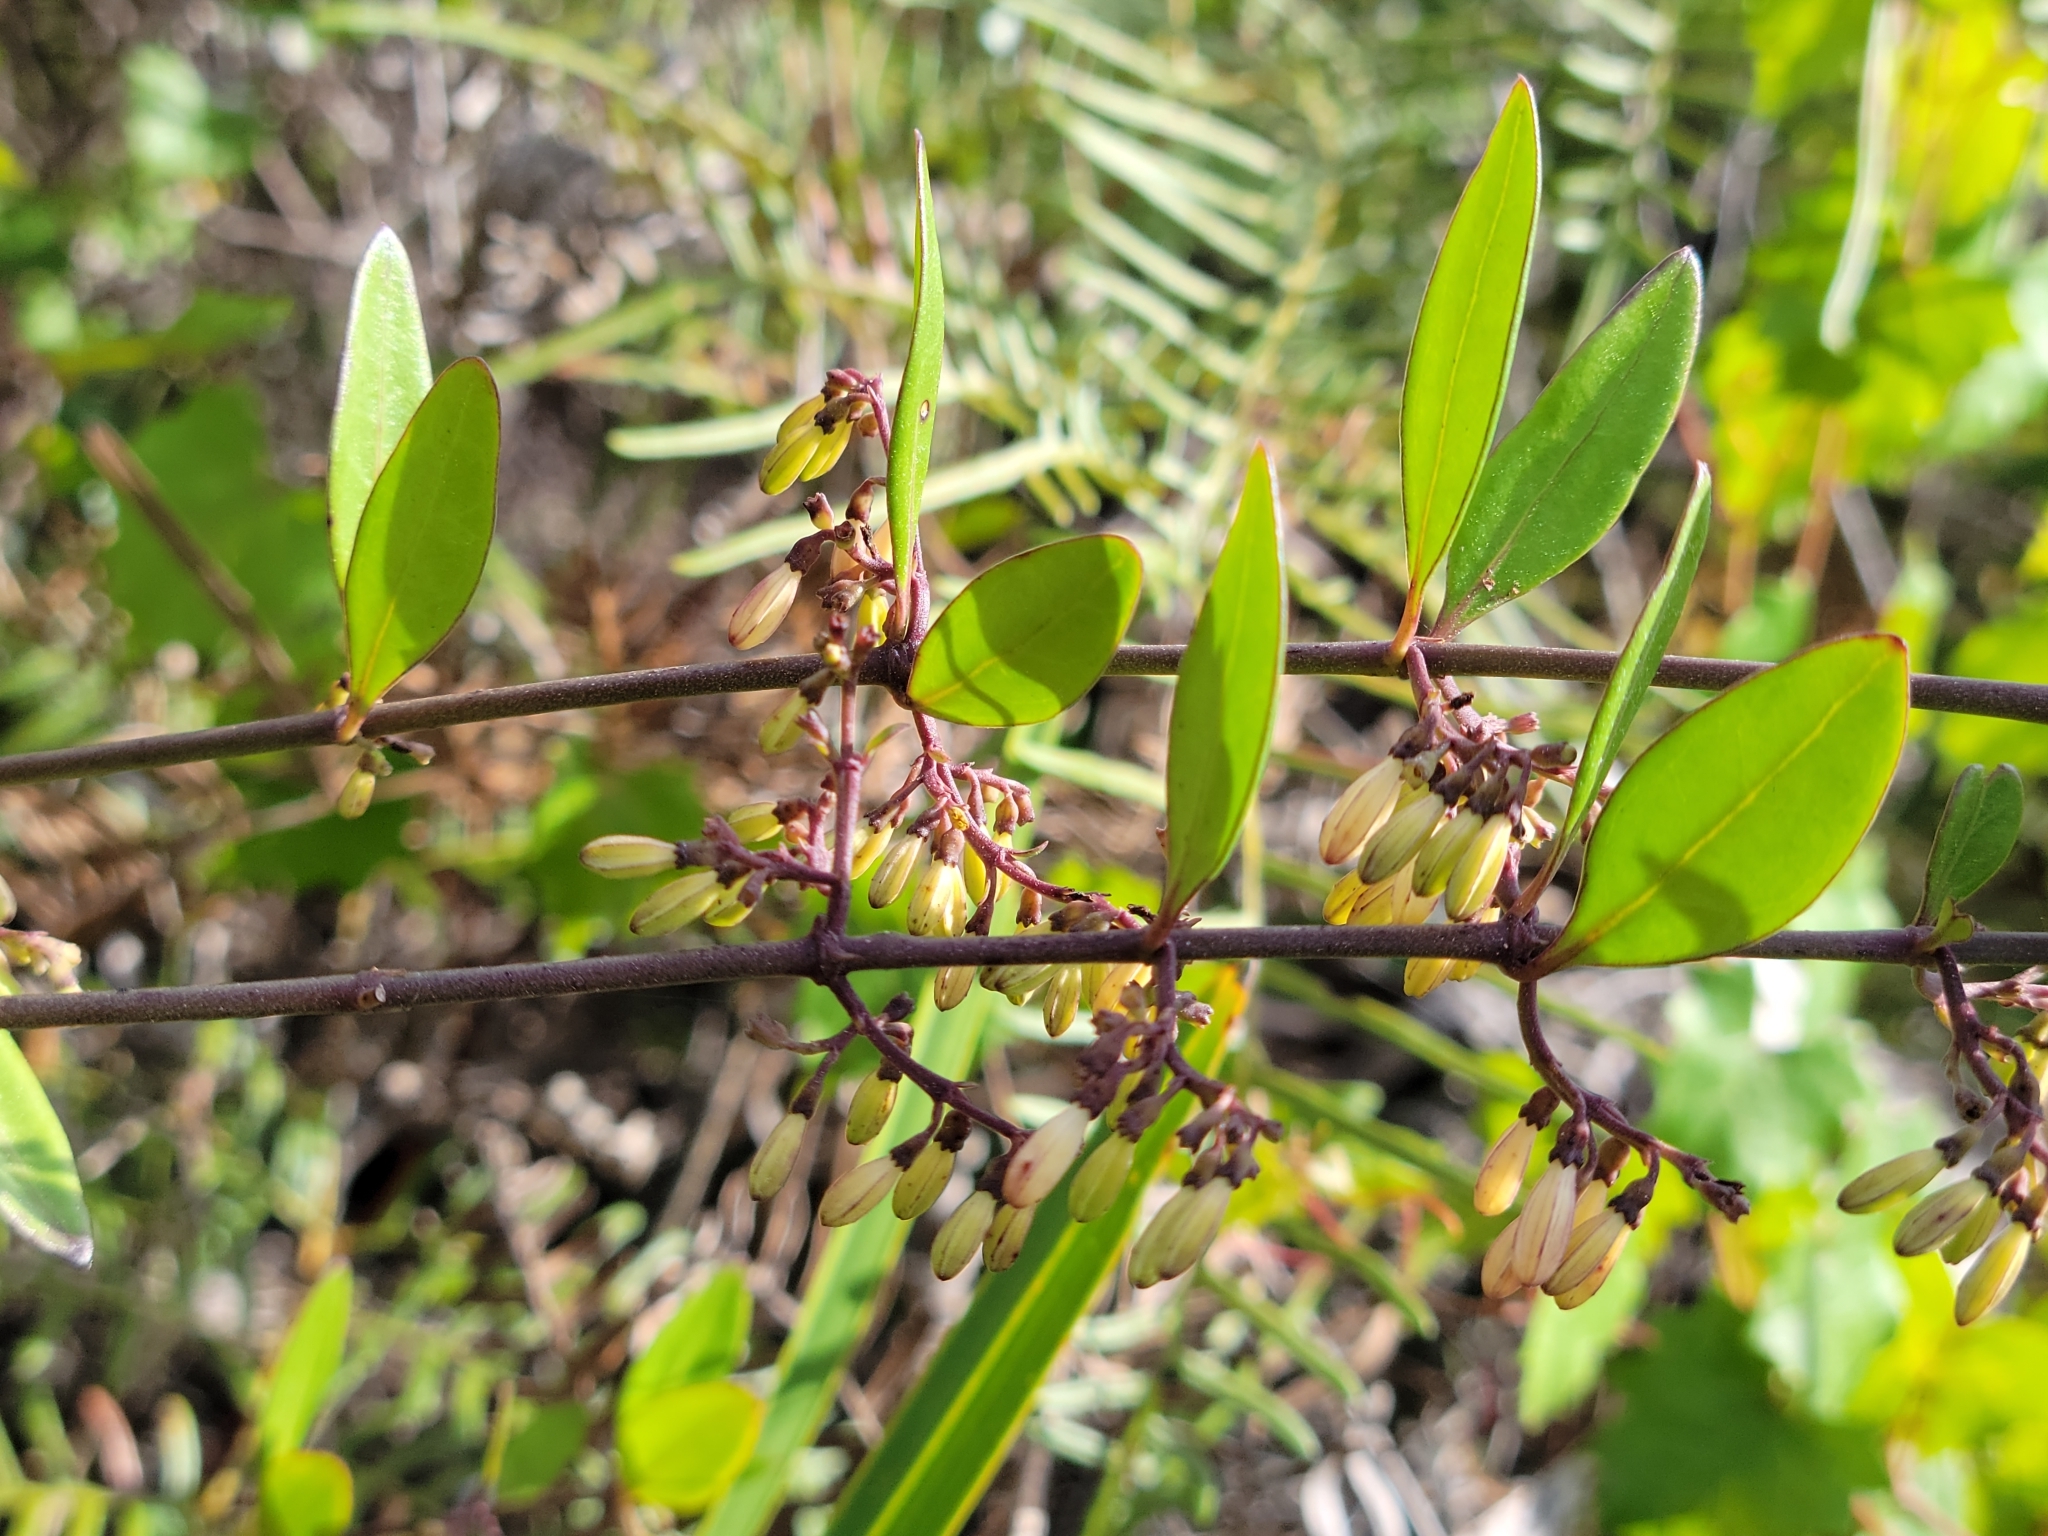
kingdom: Plantae
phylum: Tracheophyta
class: Magnoliopsida
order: Gentianales
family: Rubiaceae
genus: Chiococca
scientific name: Chiococca alba
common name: Snowberry
